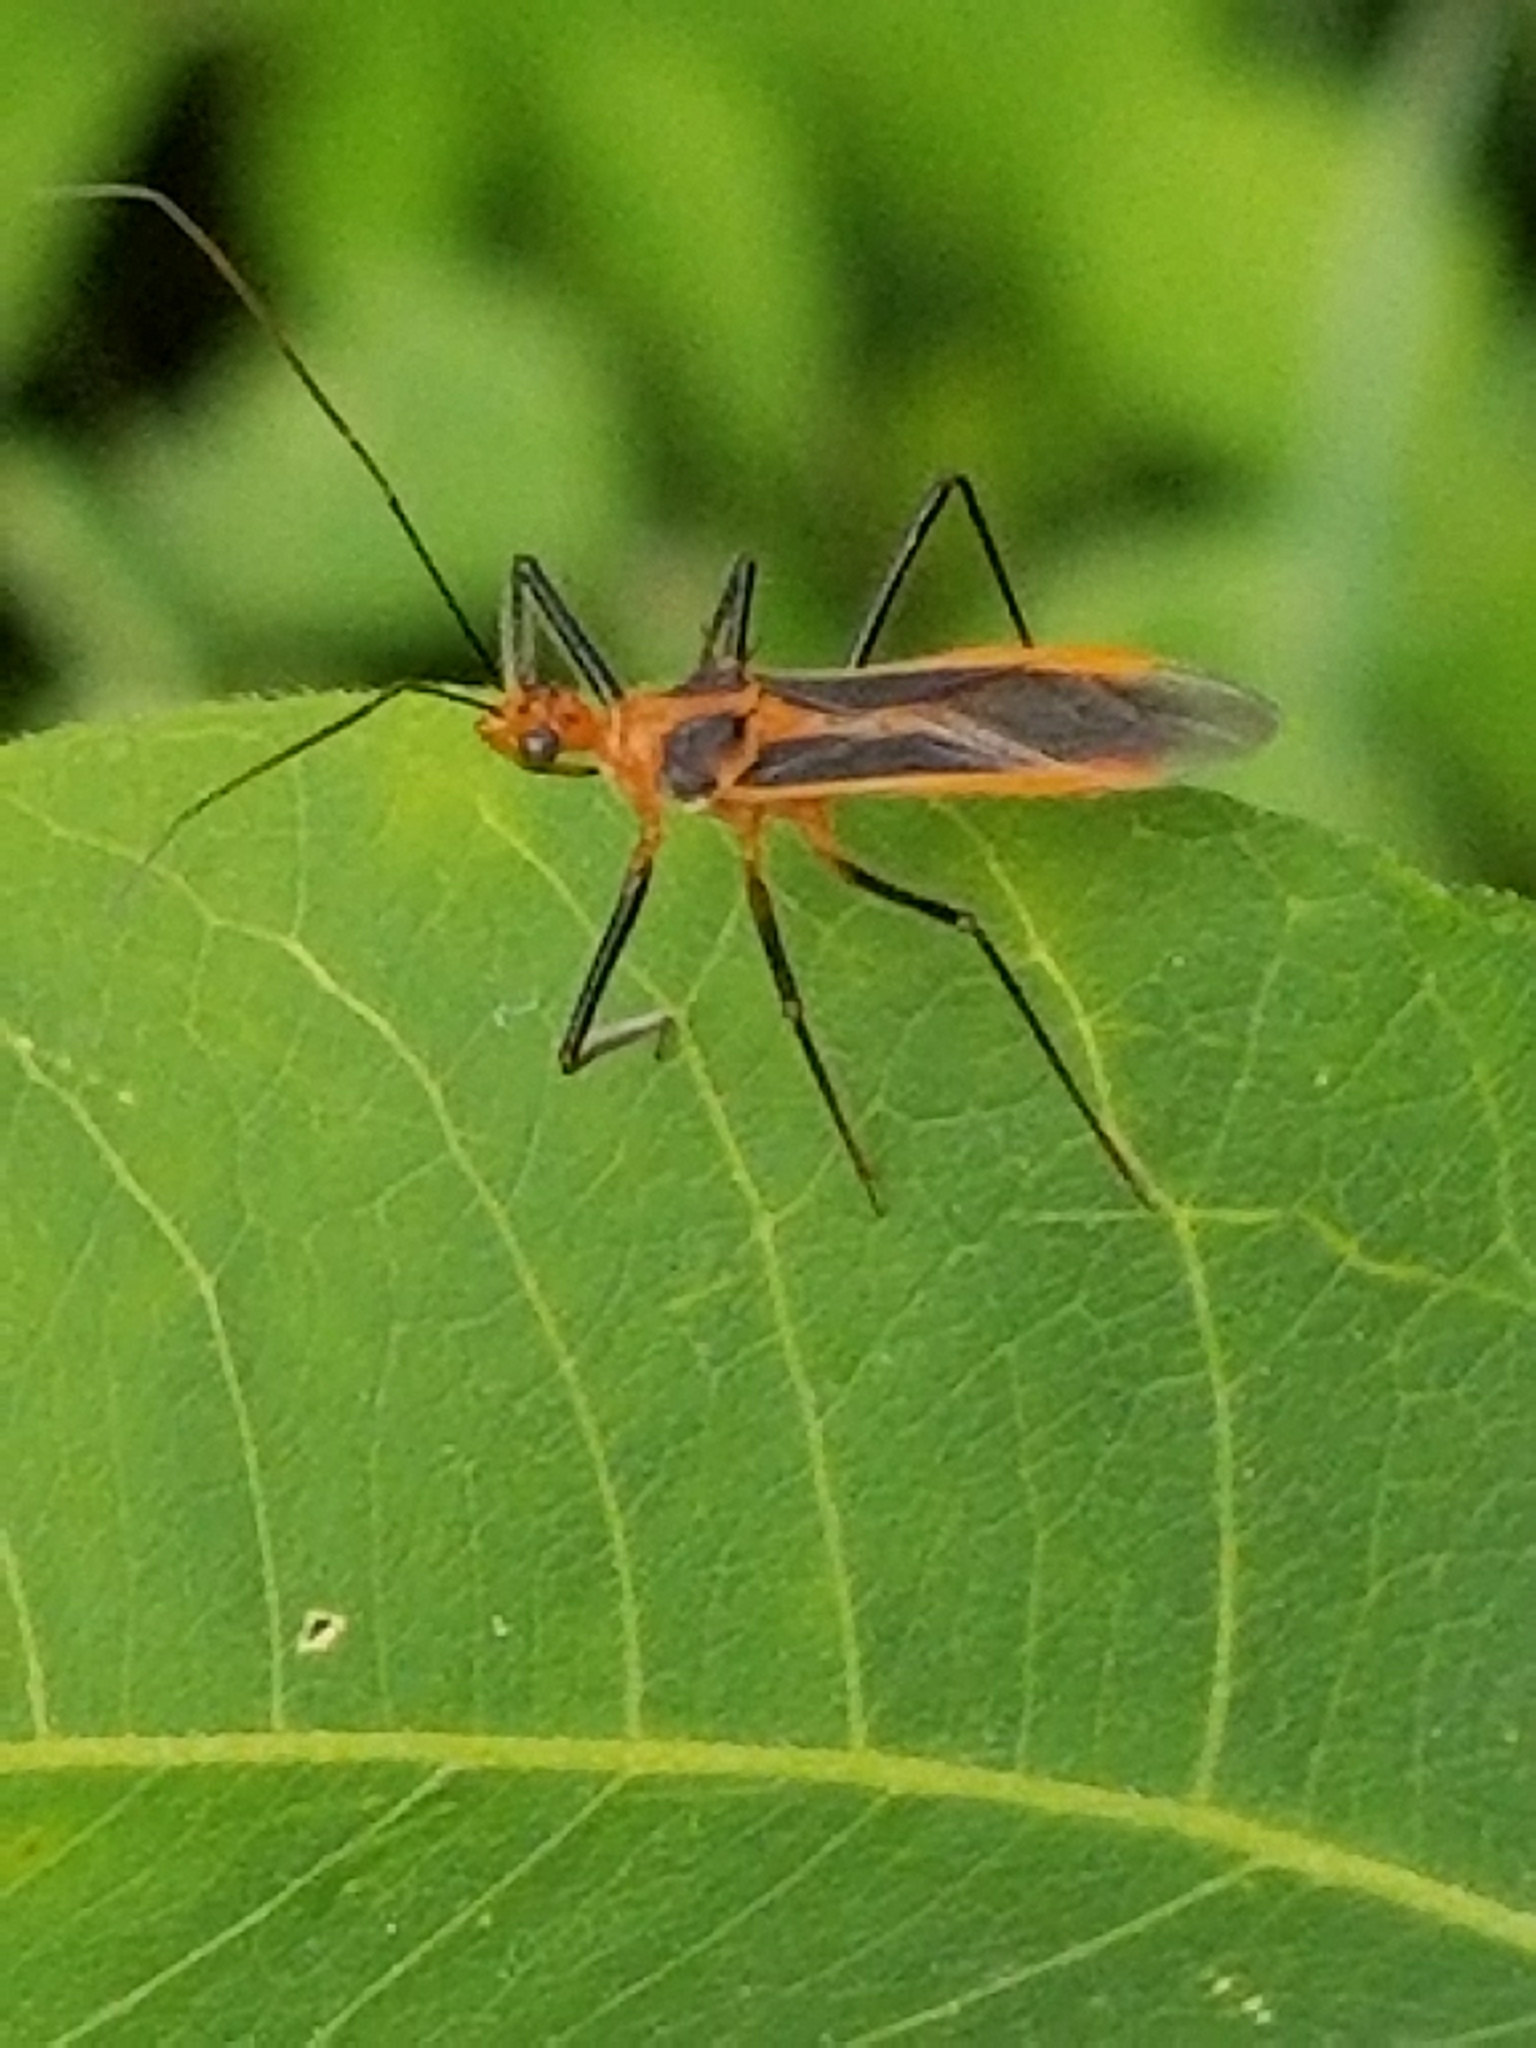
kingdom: Animalia
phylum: Arthropoda
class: Insecta
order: Hemiptera
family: Reduviidae
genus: Repipta
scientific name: Repipta taurus
